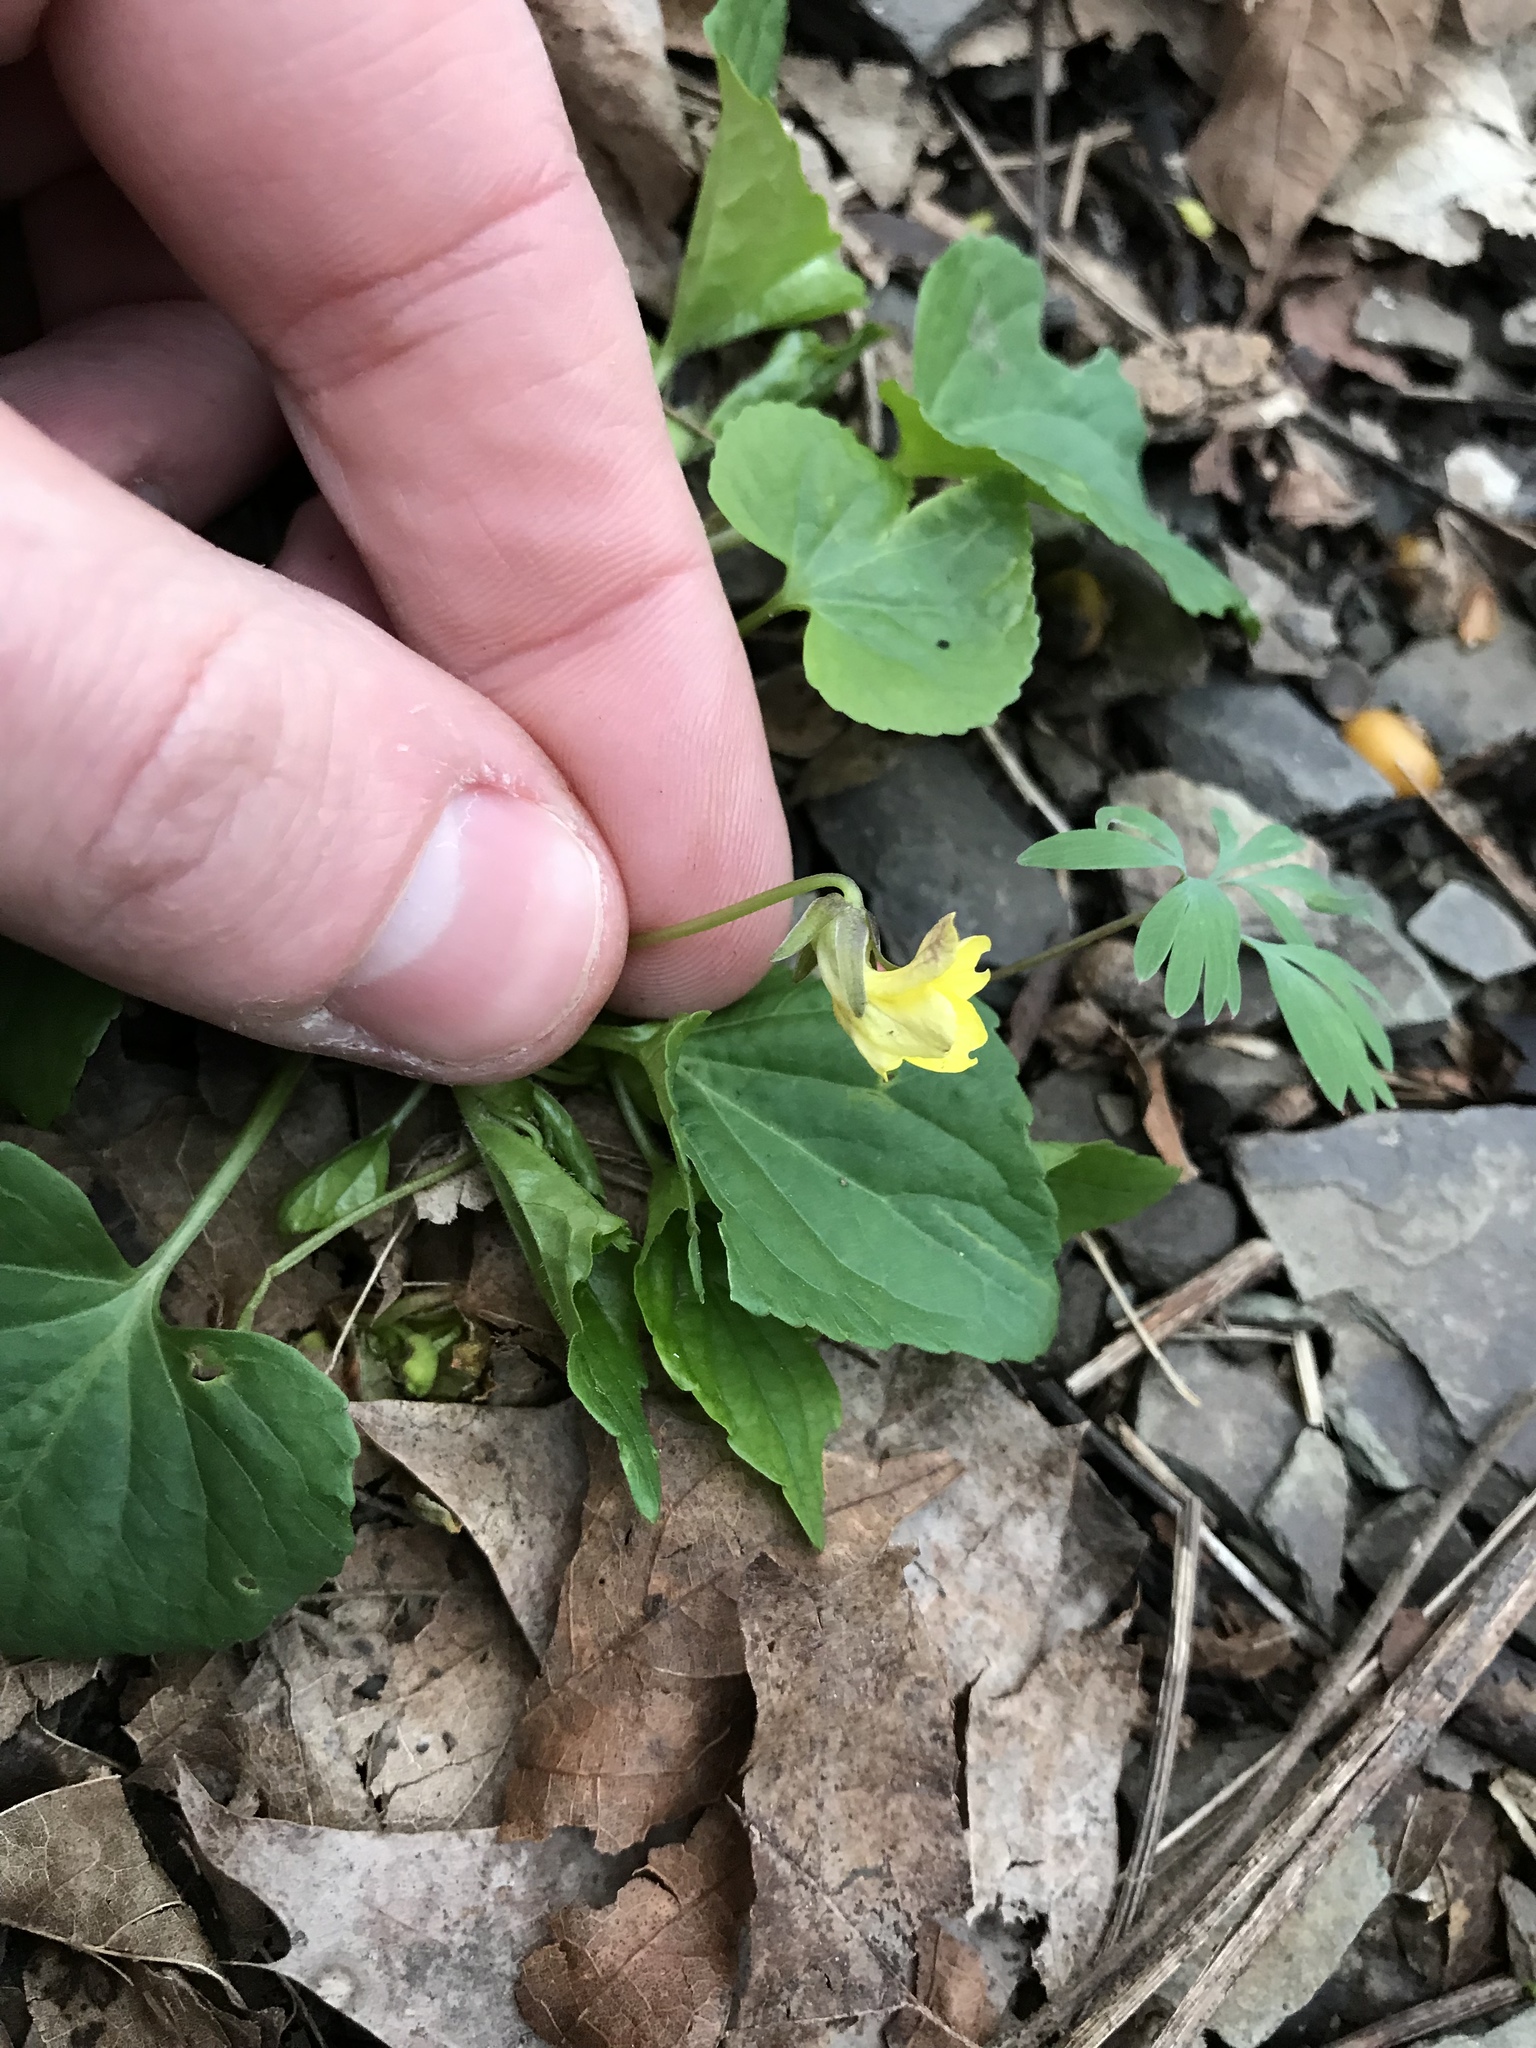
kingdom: Plantae
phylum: Tracheophyta
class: Magnoliopsida
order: Malpighiales
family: Violaceae
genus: Viola
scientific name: Viola eriocarpa
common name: Smooth yellow violet
